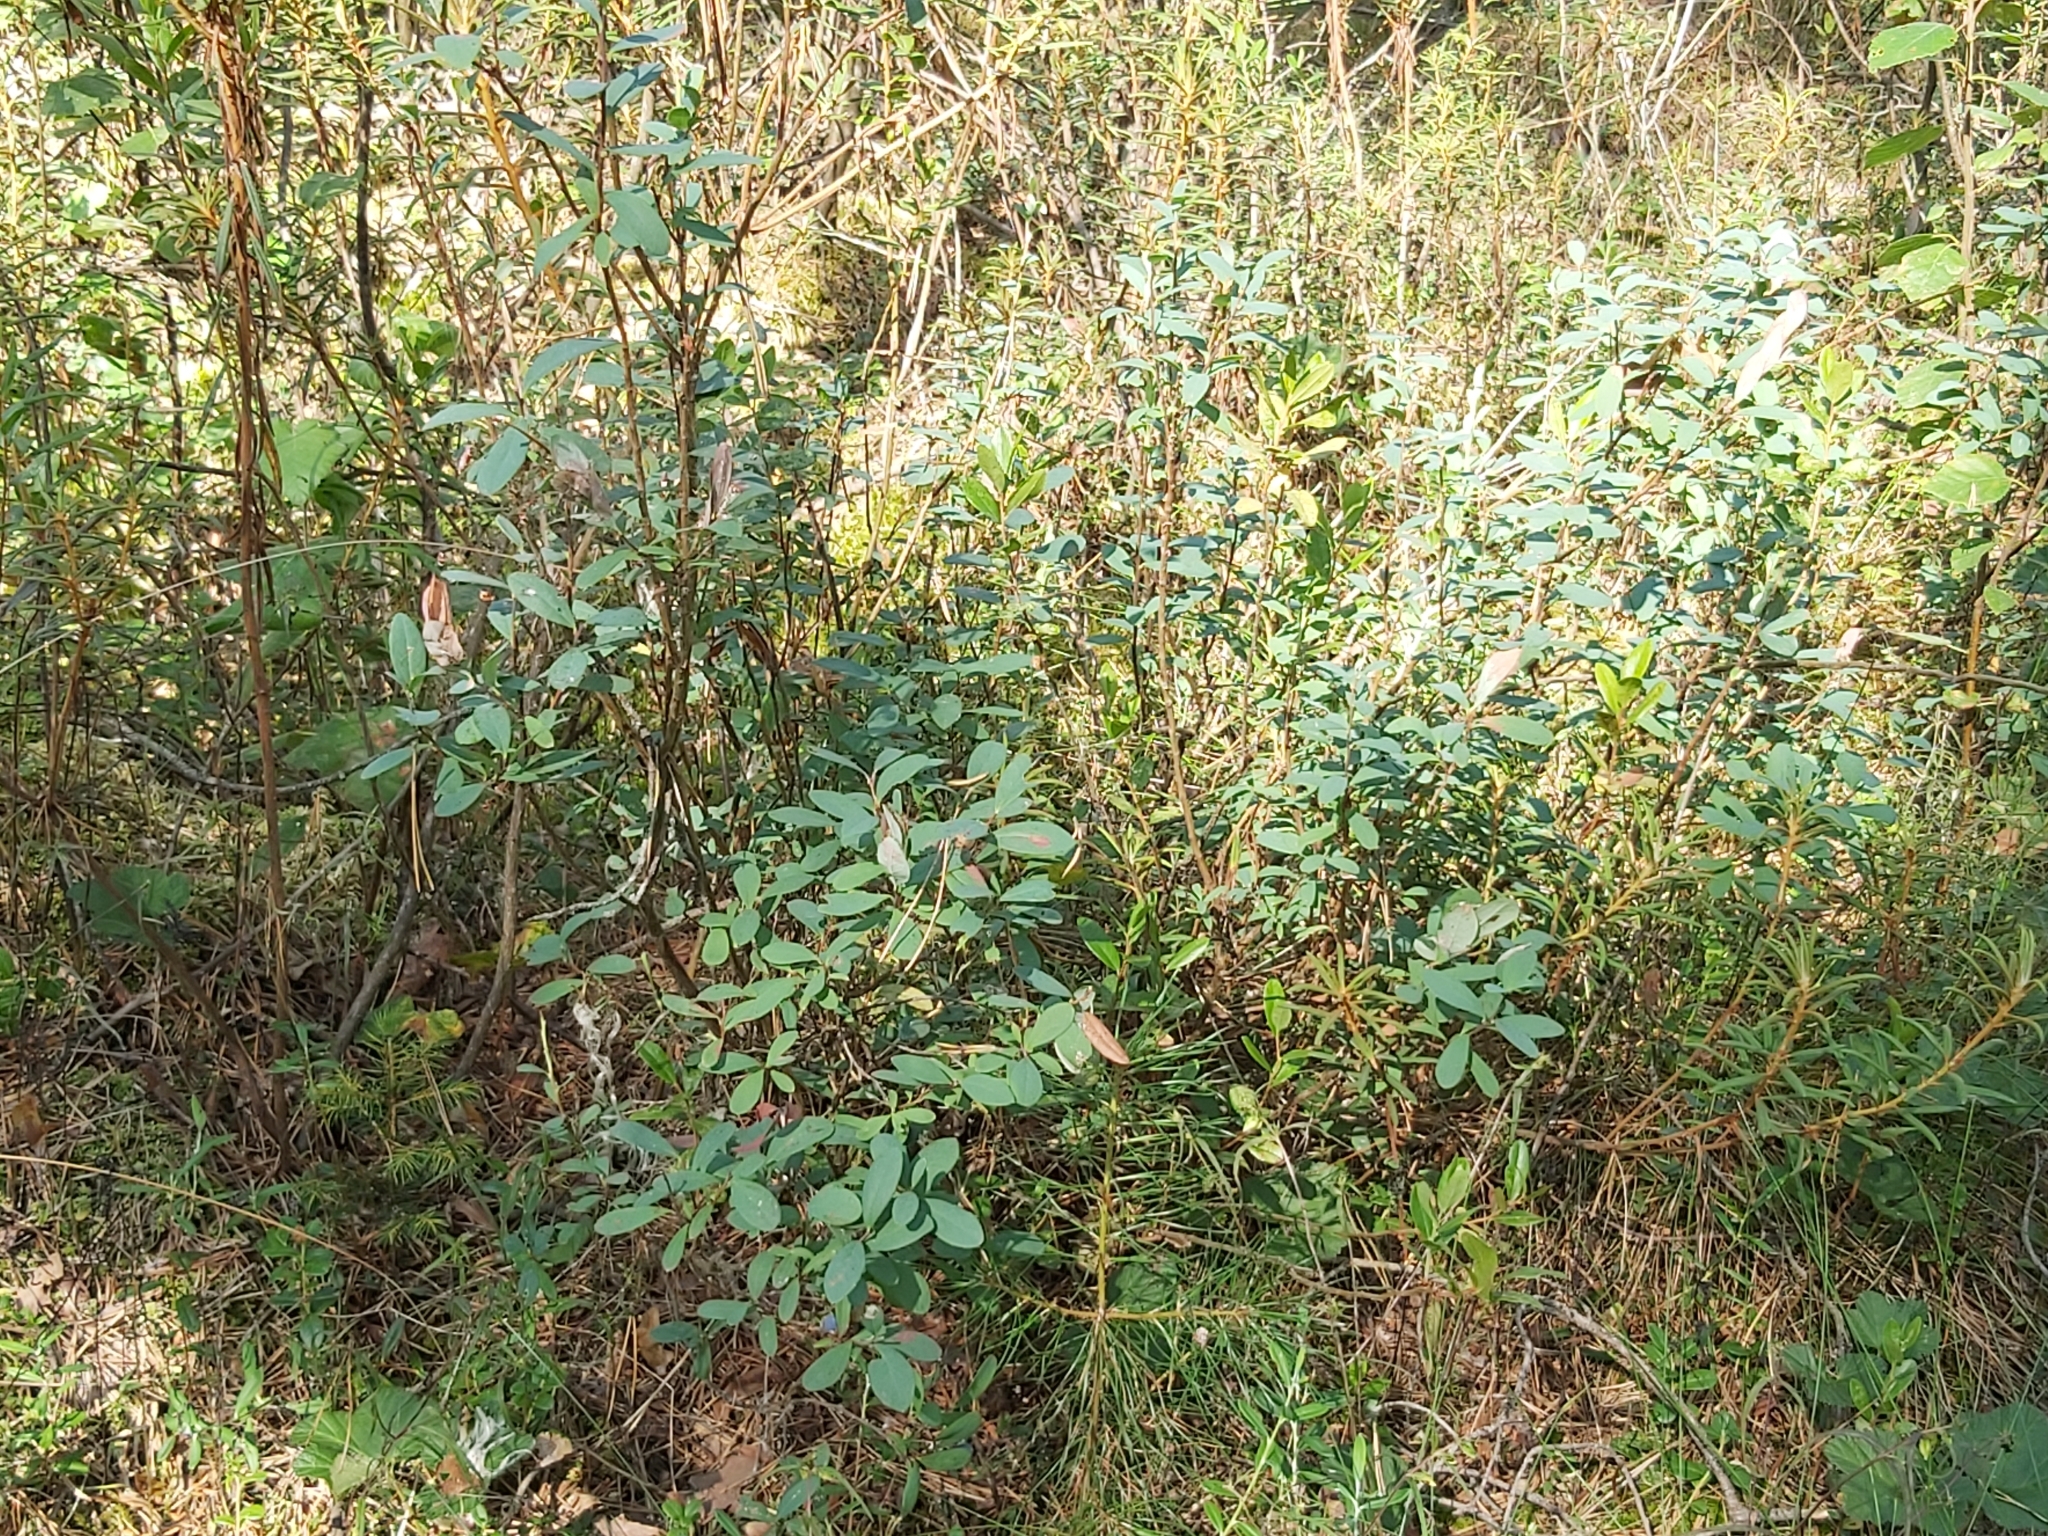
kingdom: Plantae
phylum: Tracheophyta
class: Magnoliopsida
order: Ericales
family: Ericaceae
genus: Vaccinium
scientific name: Vaccinium uliginosum
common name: Bog bilberry
